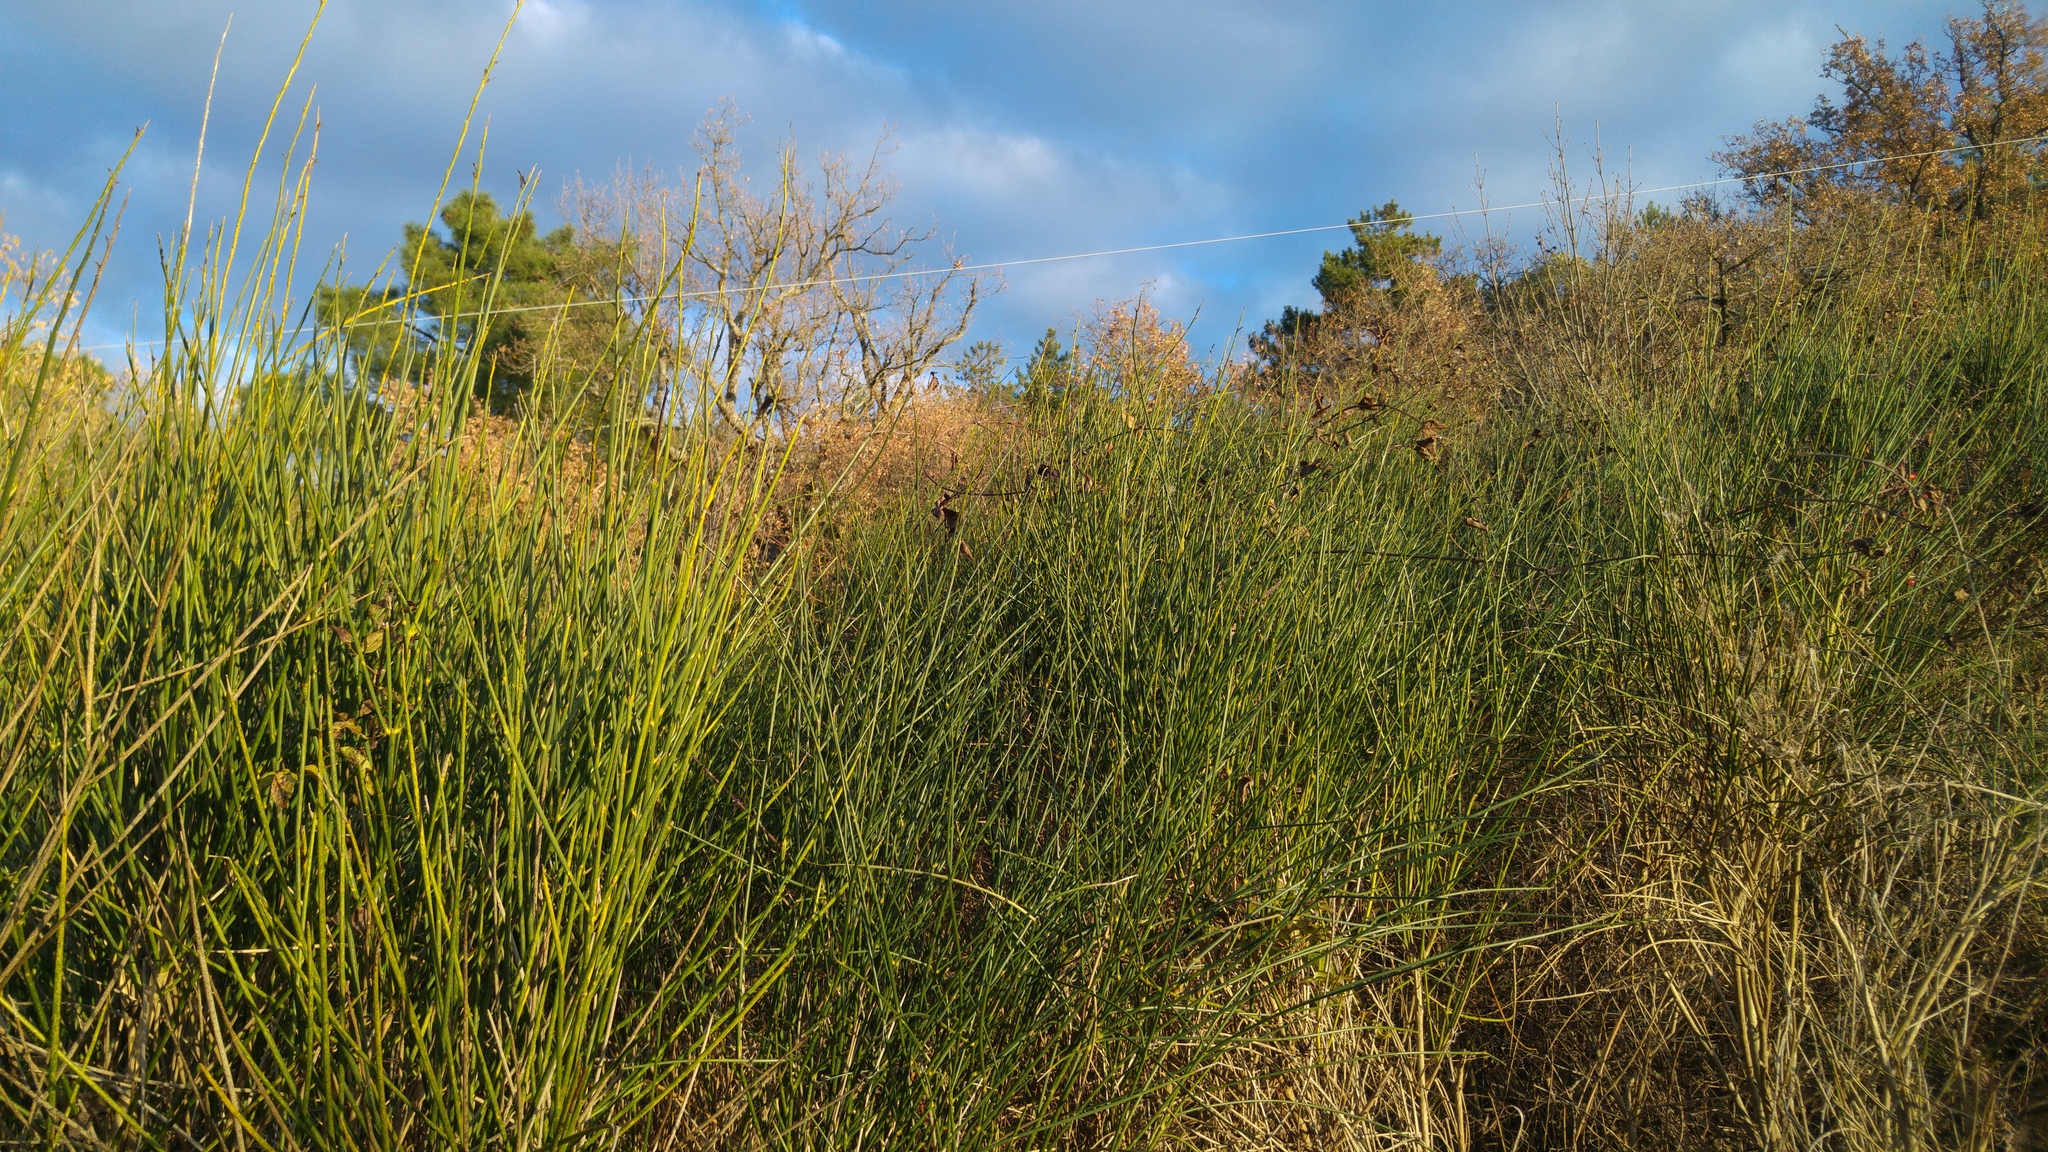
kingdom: Plantae
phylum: Tracheophyta
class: Magnoliopsida
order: Fabales
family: Fabaceae
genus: Spartium
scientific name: Spartium junceum
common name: Spanish broom
